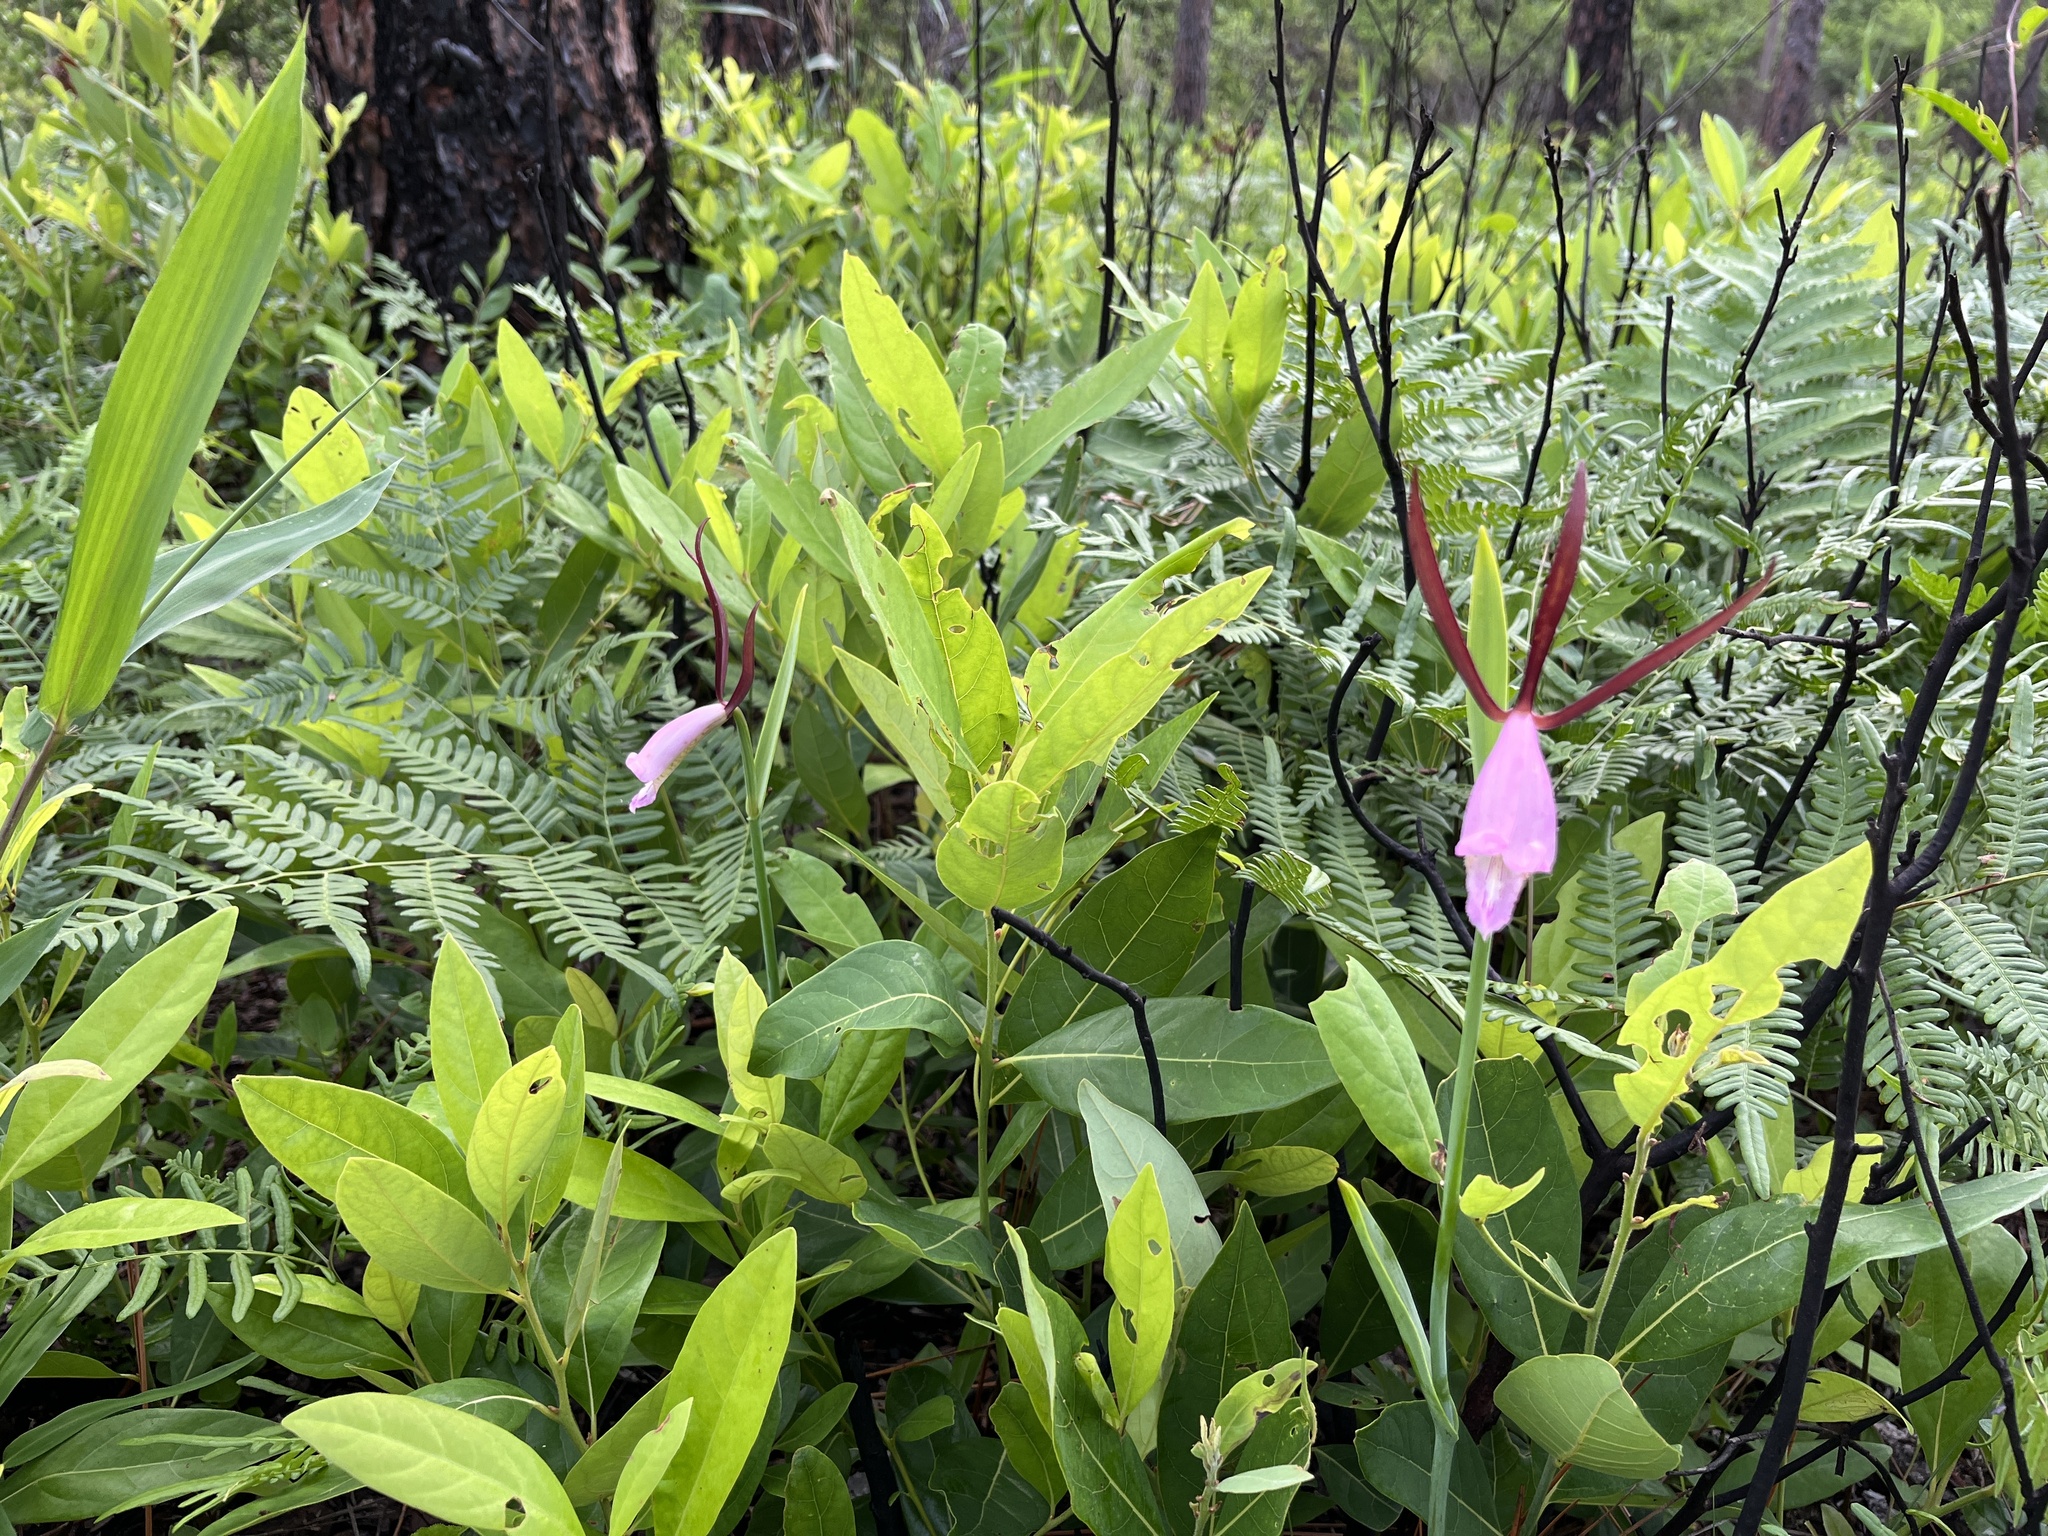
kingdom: Plantae
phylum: Tracheophyta
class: Liliopsida
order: Asparagales
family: Orchidaceae
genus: Cleistesiopsis
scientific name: Cleistesiopsis divaricata
